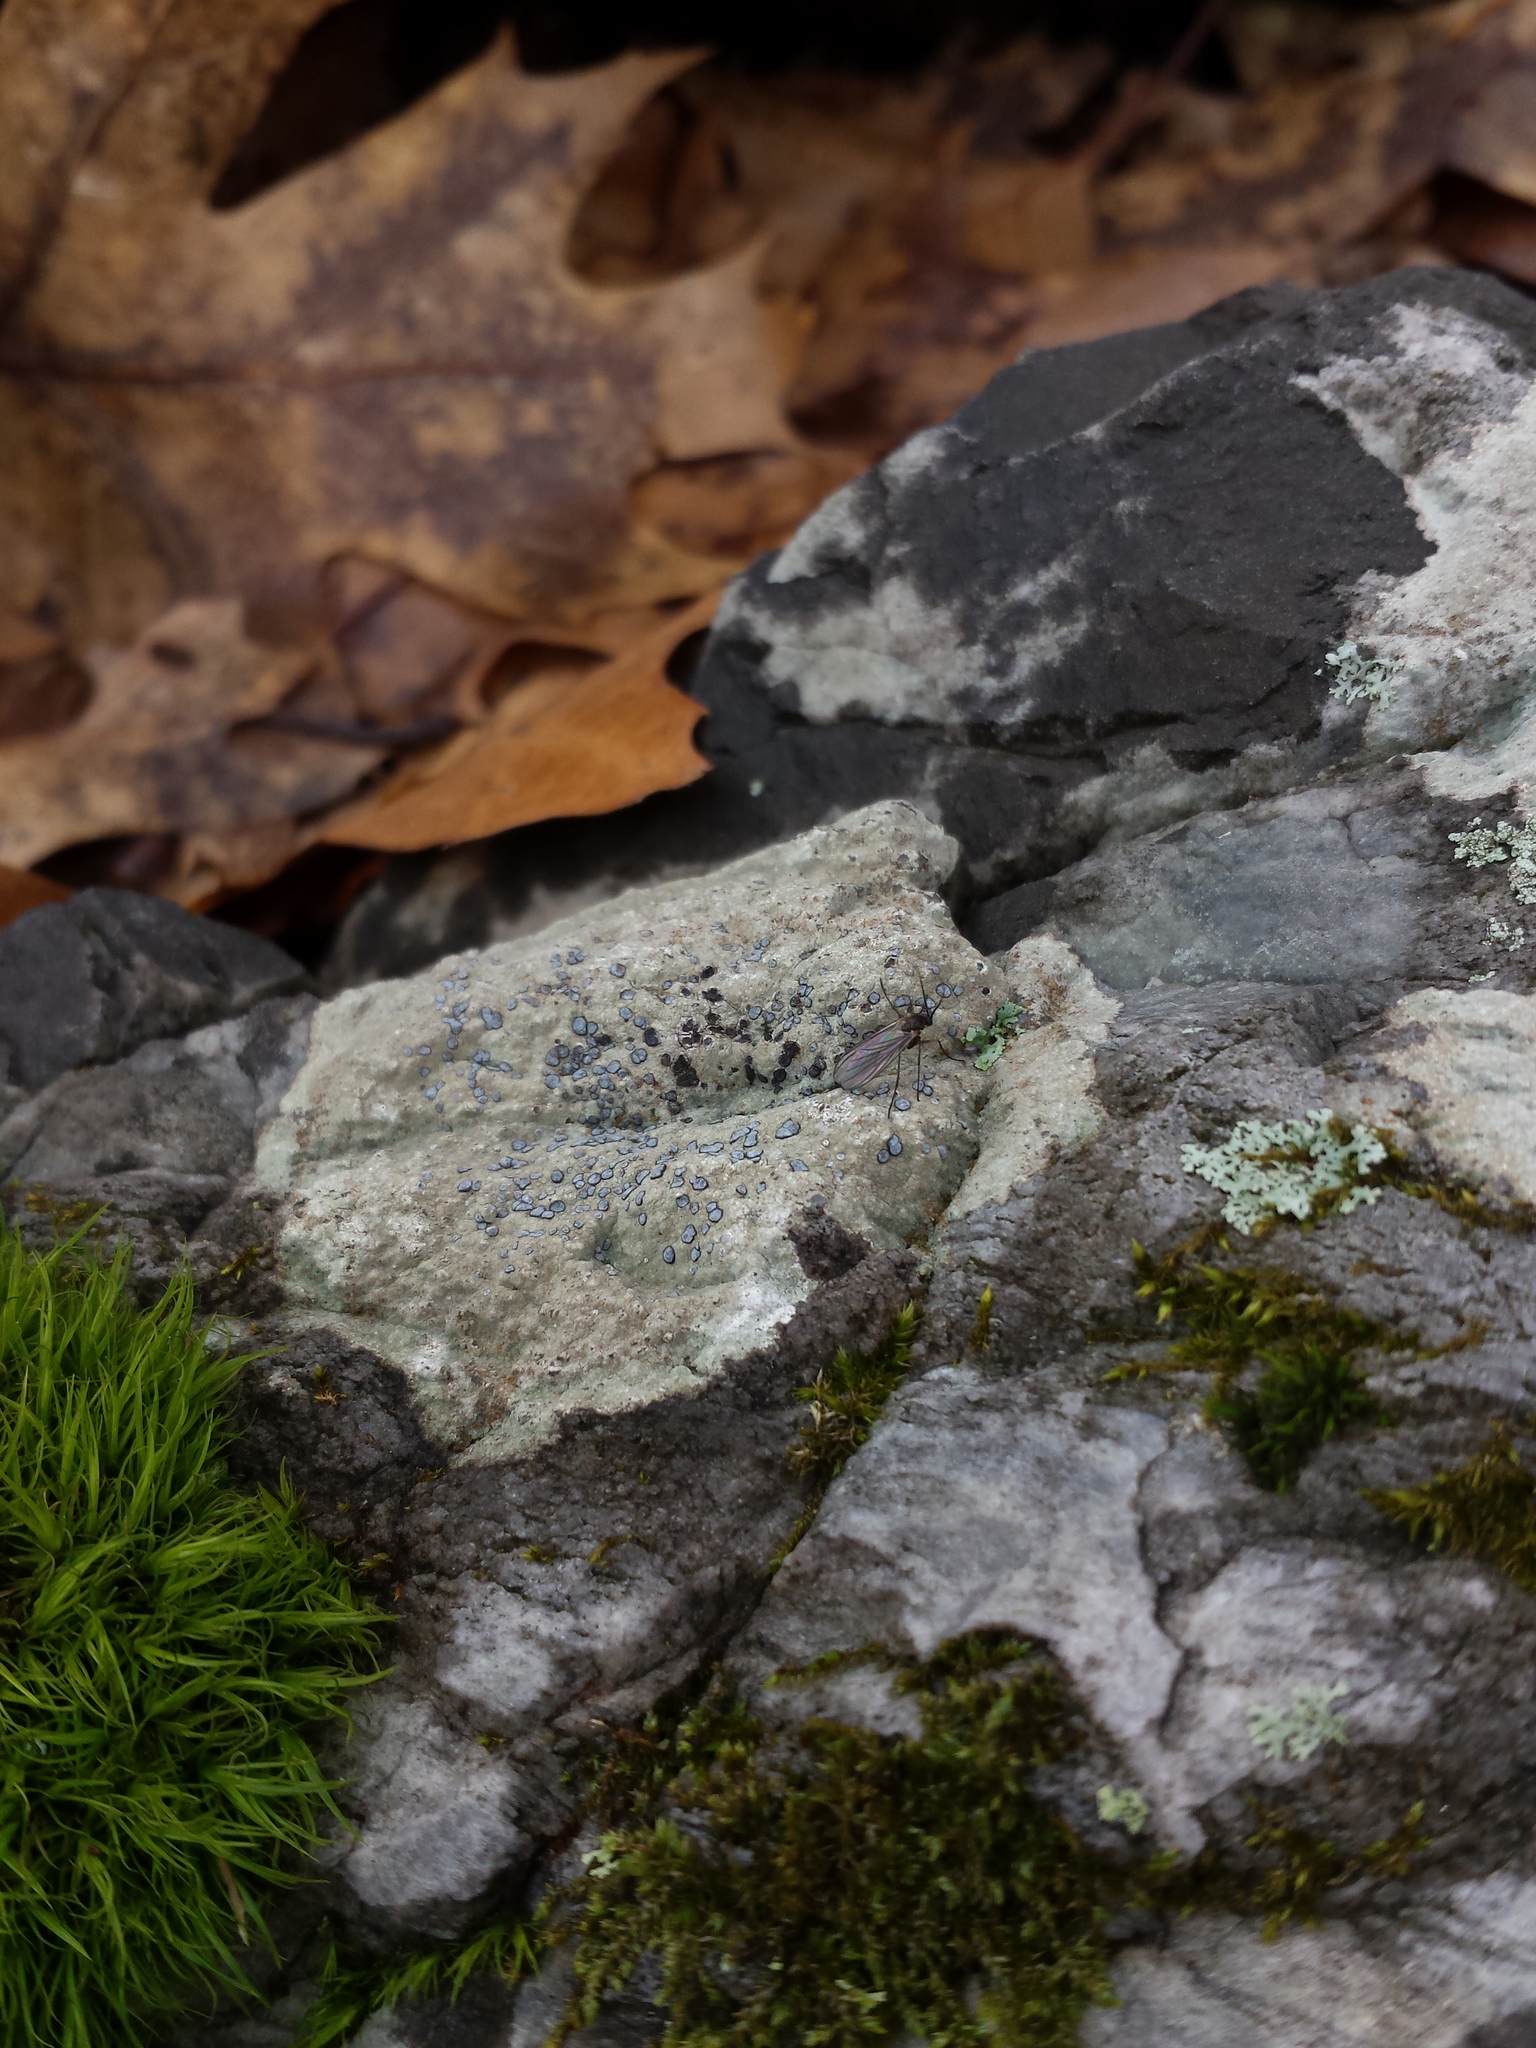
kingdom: Fungi
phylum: Ascomycota
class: Lecanoromycetes
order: Lecideales
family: Lecideaceae
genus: Porpidia
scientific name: Porpidia albocaerulescens
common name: Smokey-eyed boulder lichen
